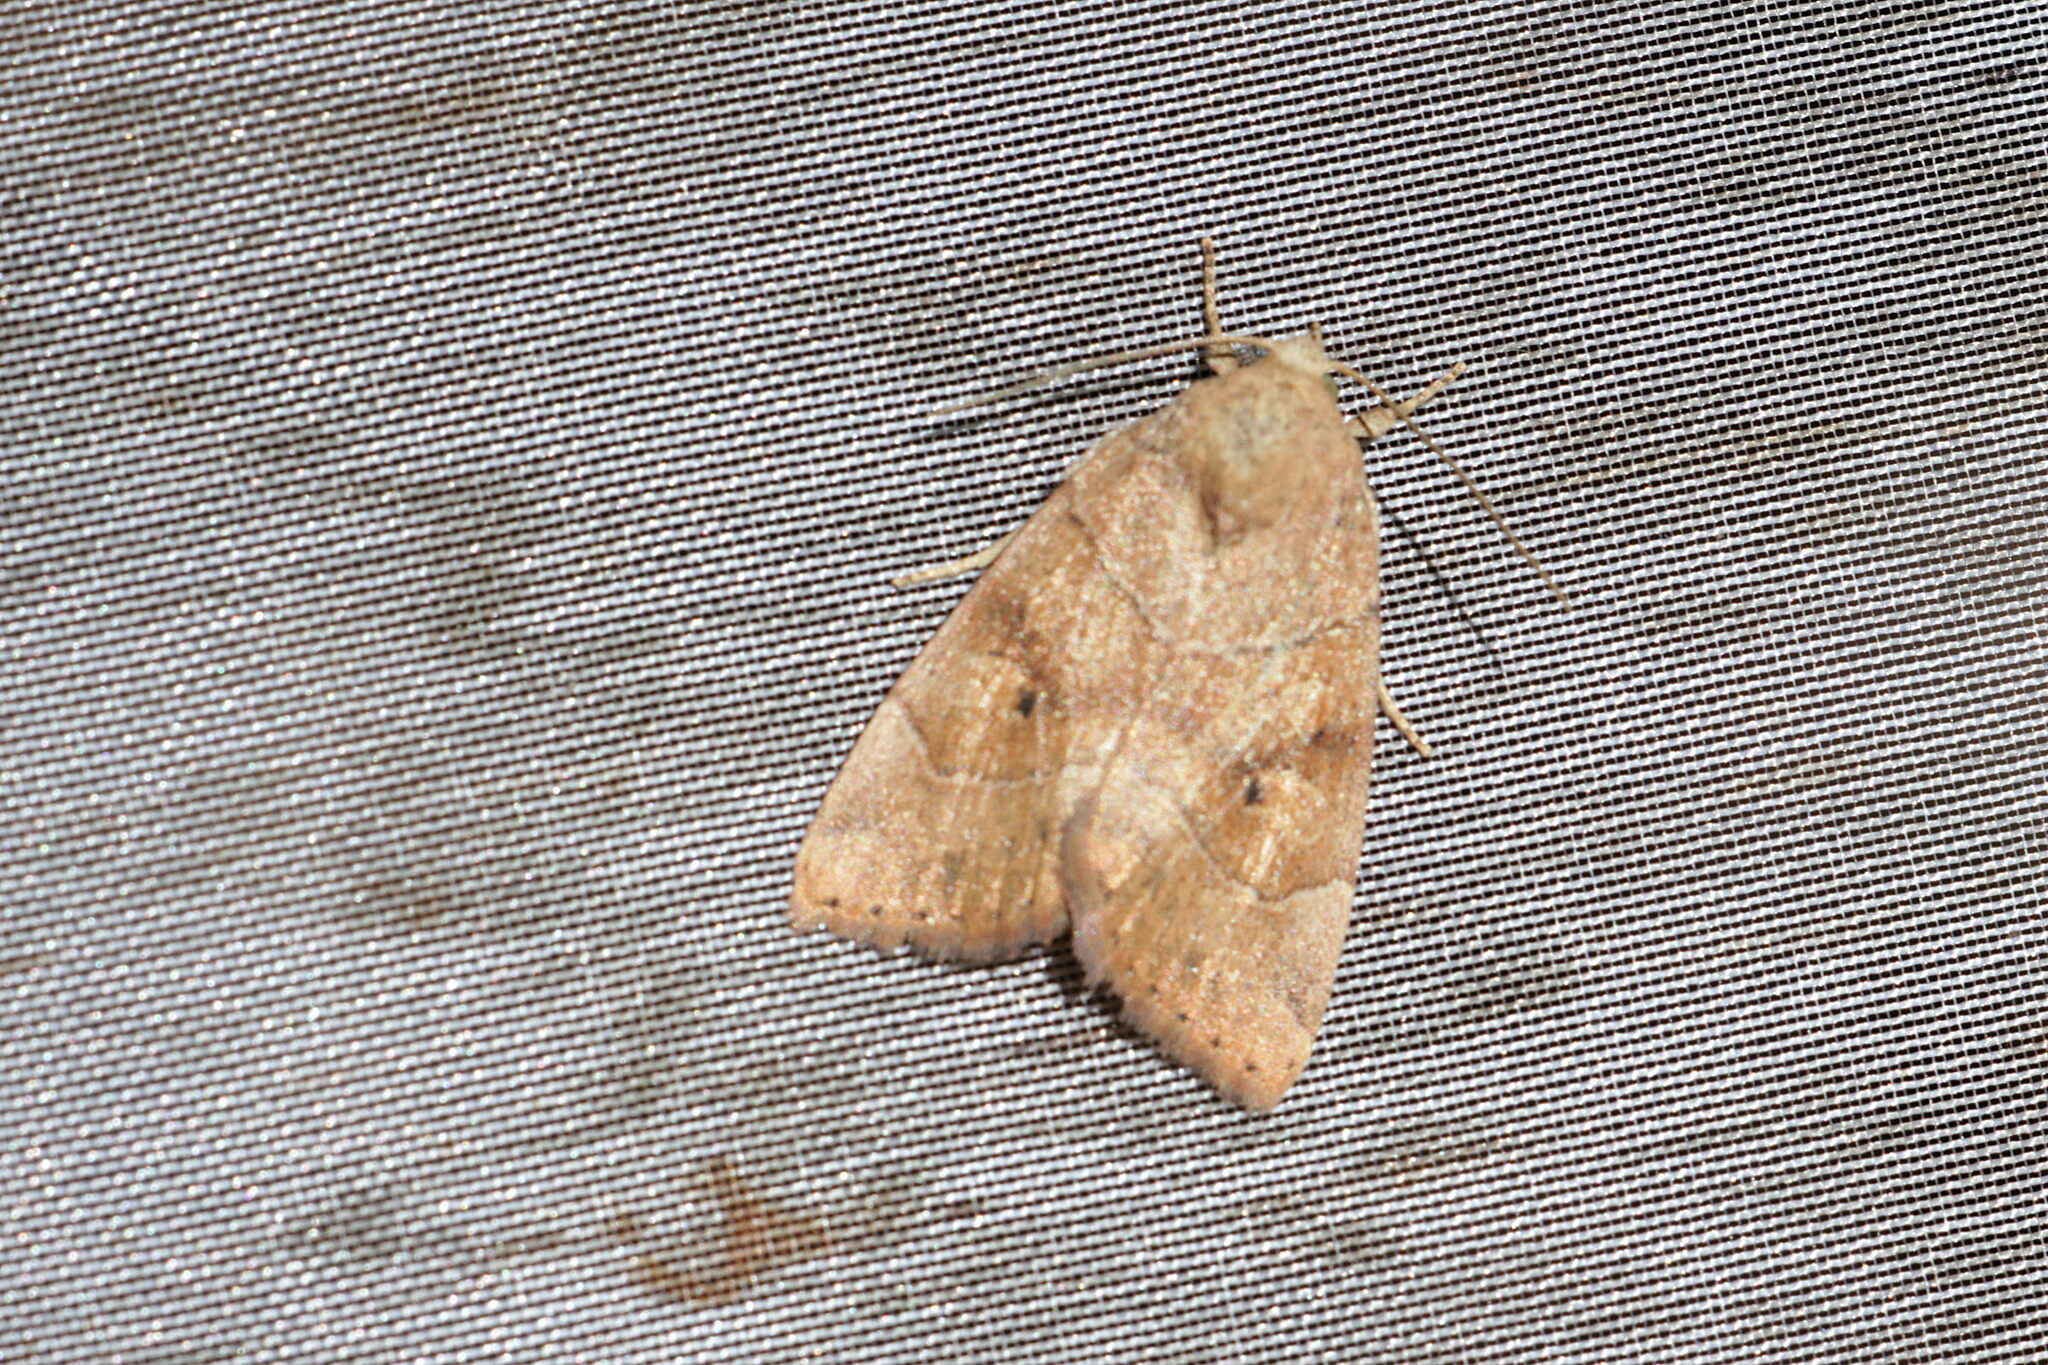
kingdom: Animalia
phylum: Arthropoda
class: Insecta
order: Lepidoptera
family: Noctuidae
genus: Cosmia
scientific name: Cosmia trapezina
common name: Dun-bar
